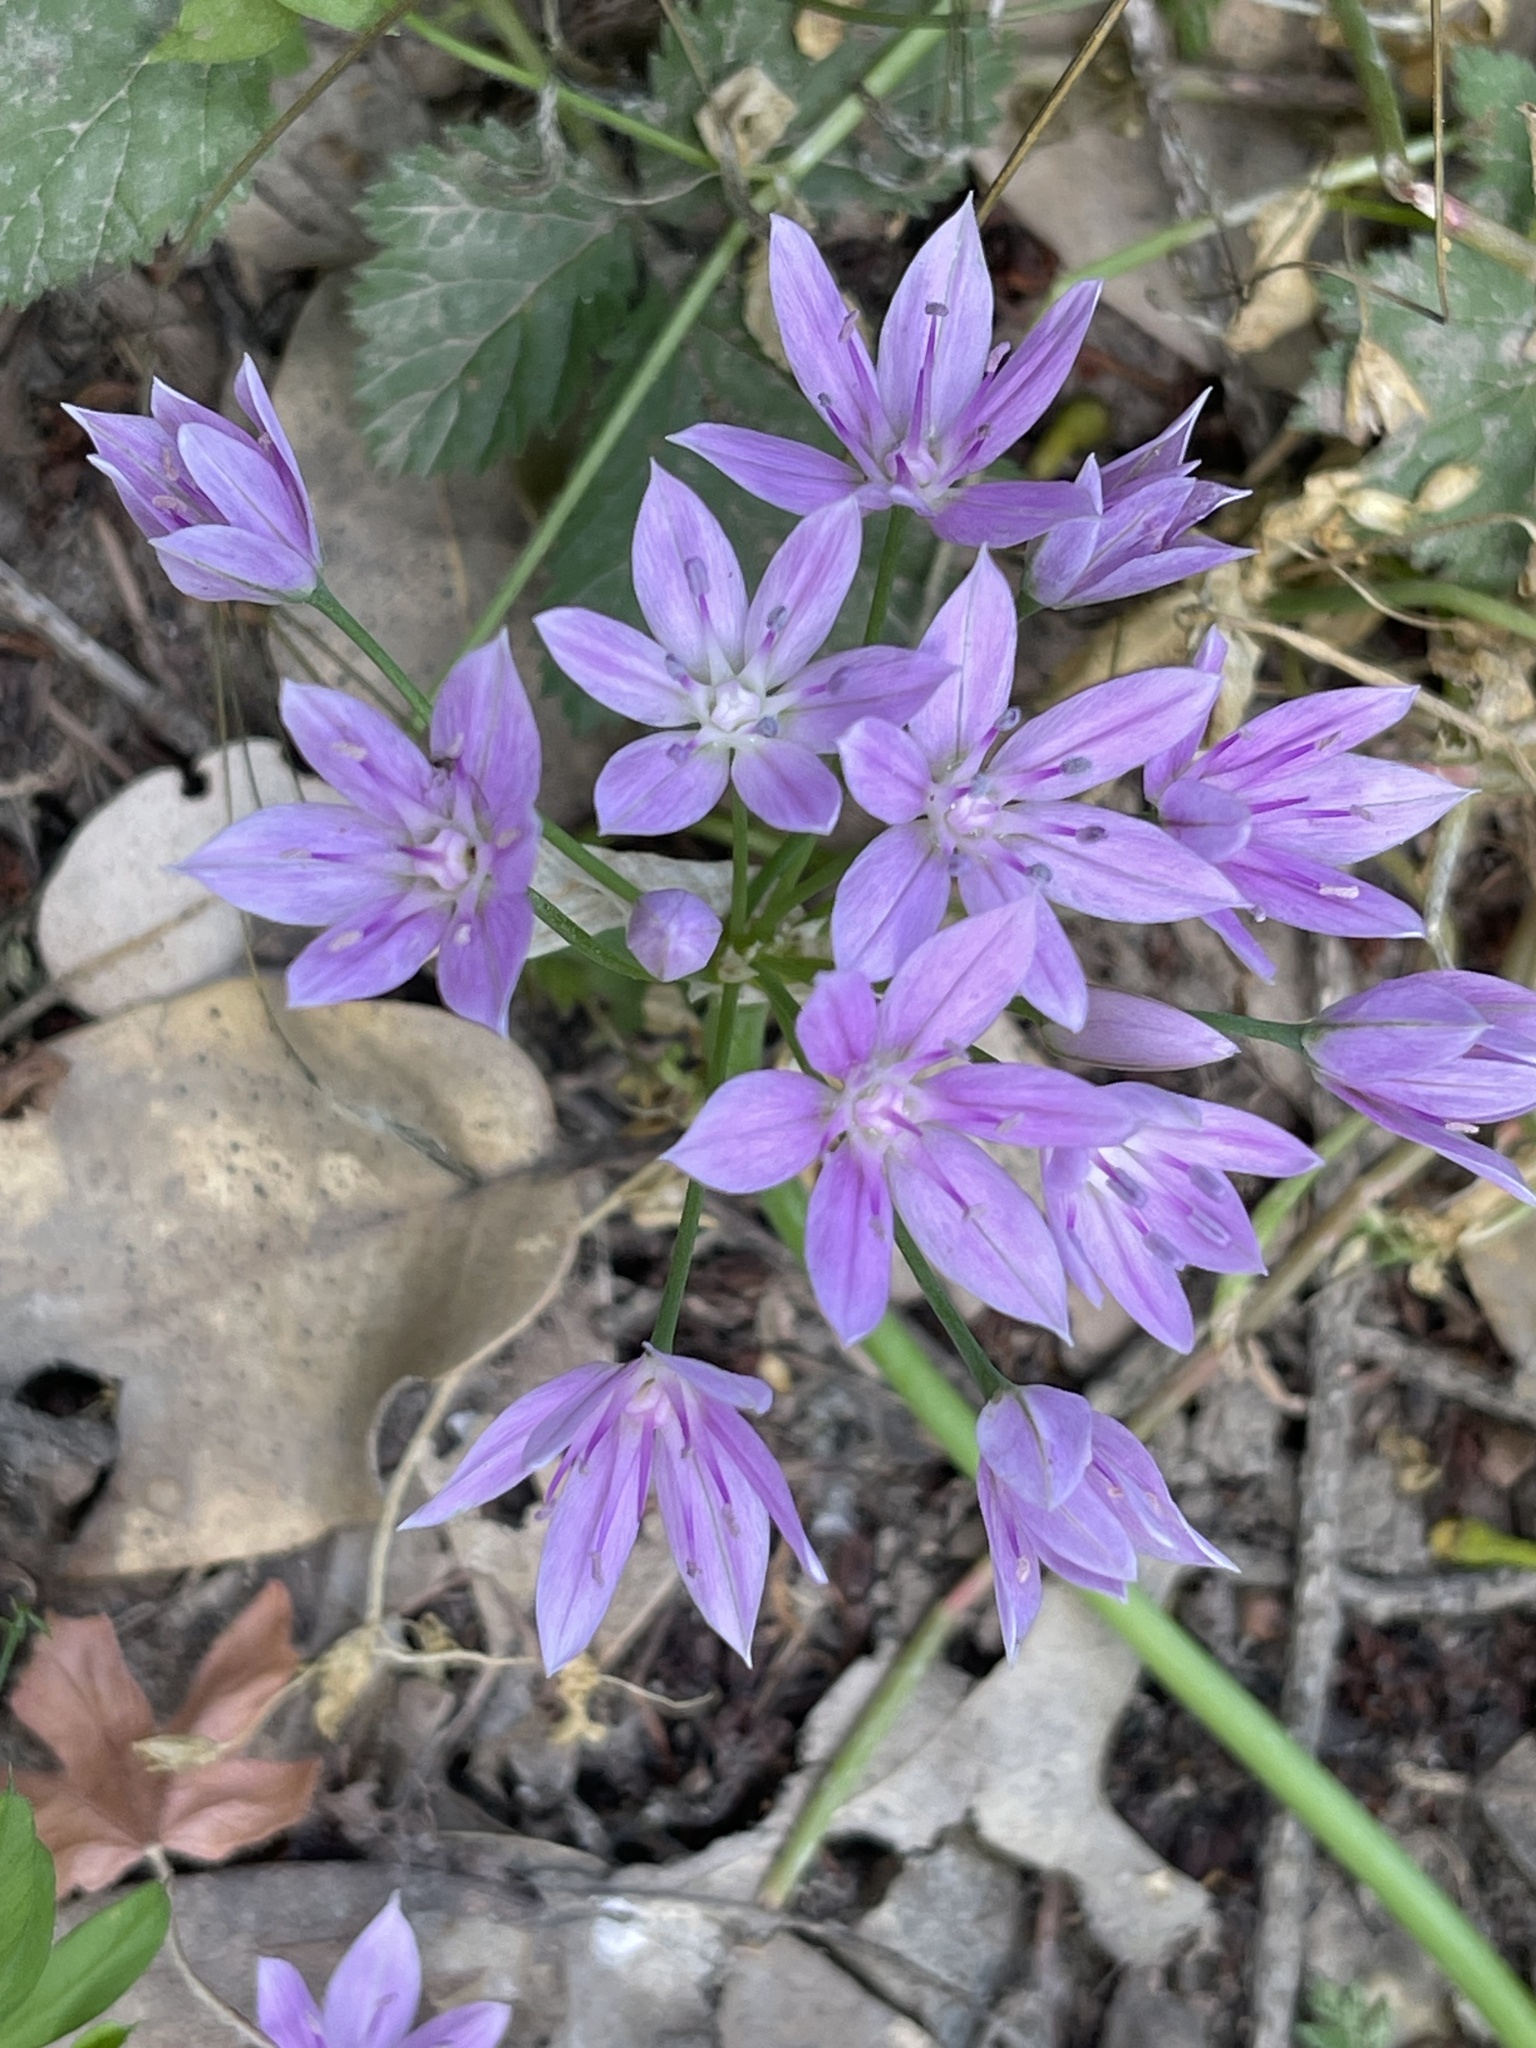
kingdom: Plantae
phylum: Tracheophyta
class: Liliopsida
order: Asparagales
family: Amaryllidaceae
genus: Allium
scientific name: Allium unifolium
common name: American garlic
